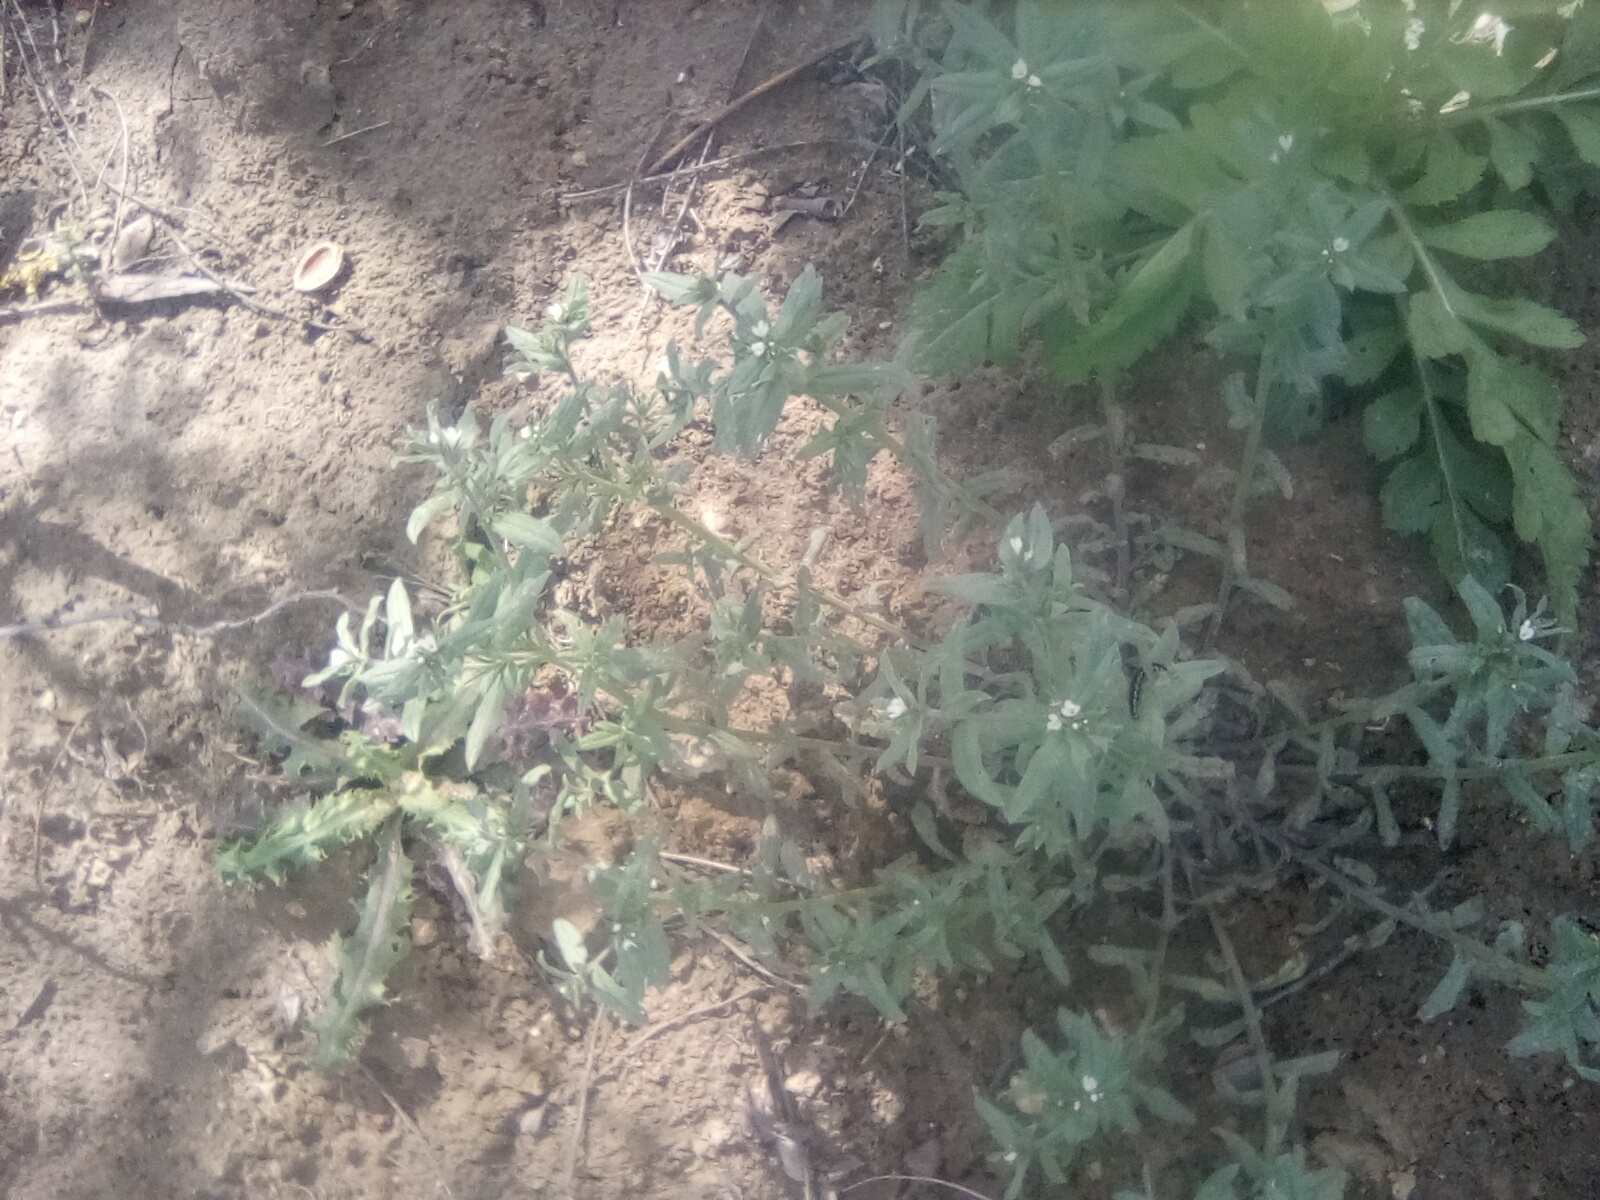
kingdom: Plantae
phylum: Tracheophyta
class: Magnoliopsida
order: Boraginales
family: Boraginaceae
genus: Buglossoides
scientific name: Buglossoides arvensis
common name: Corn gromwell
